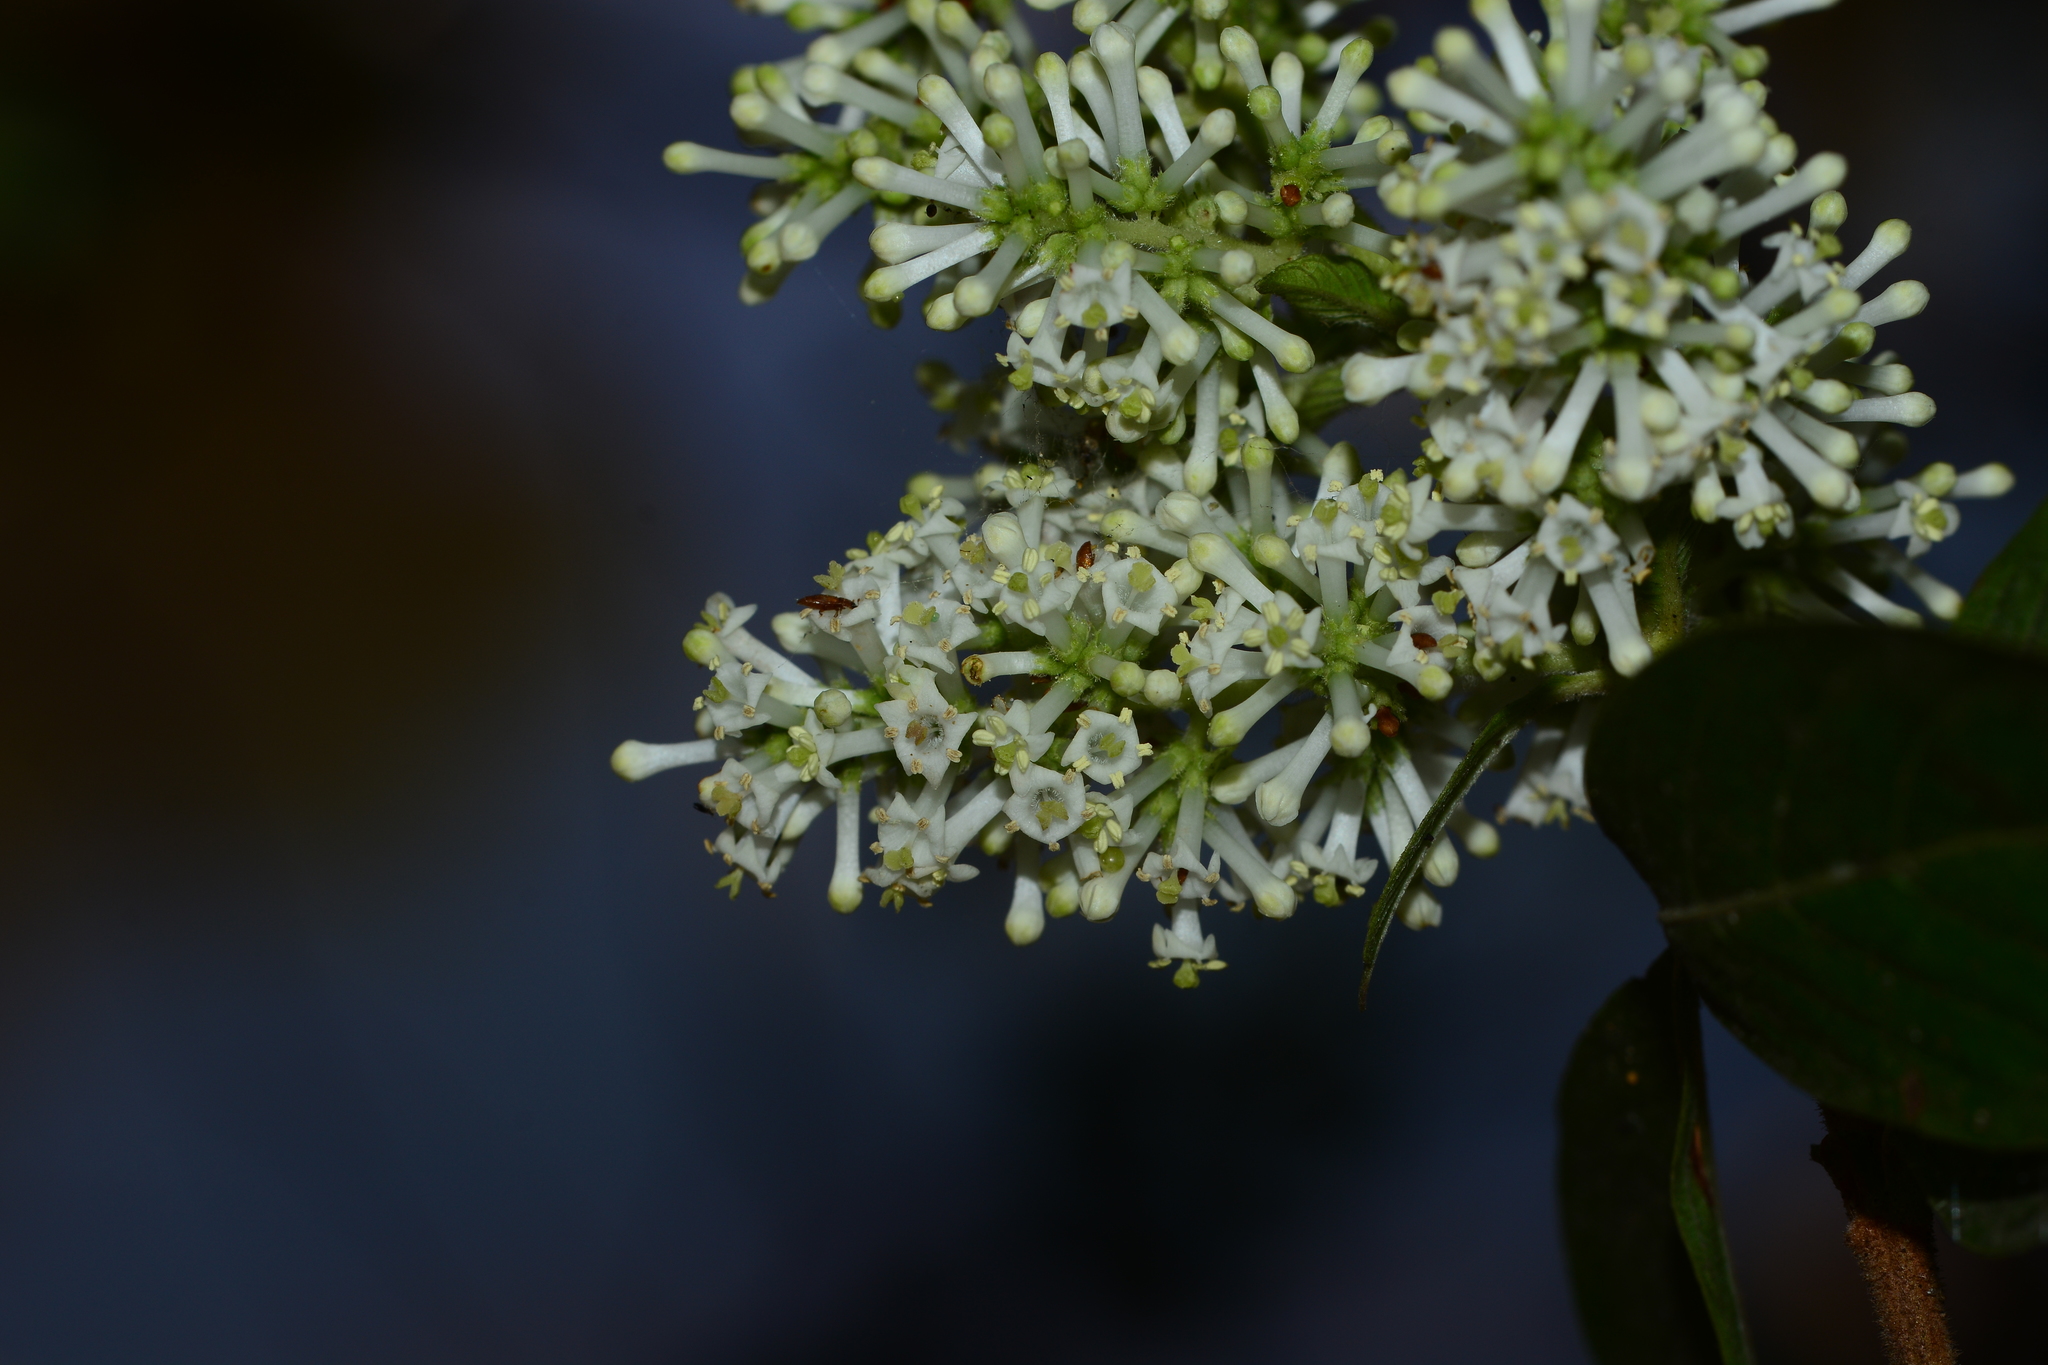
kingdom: Plantae
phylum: Tracheophyta
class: Magnoliopsida
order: Gentianales
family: Rubiaceae
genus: Wendlandia
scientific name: Wendlandia thyrsoidea
